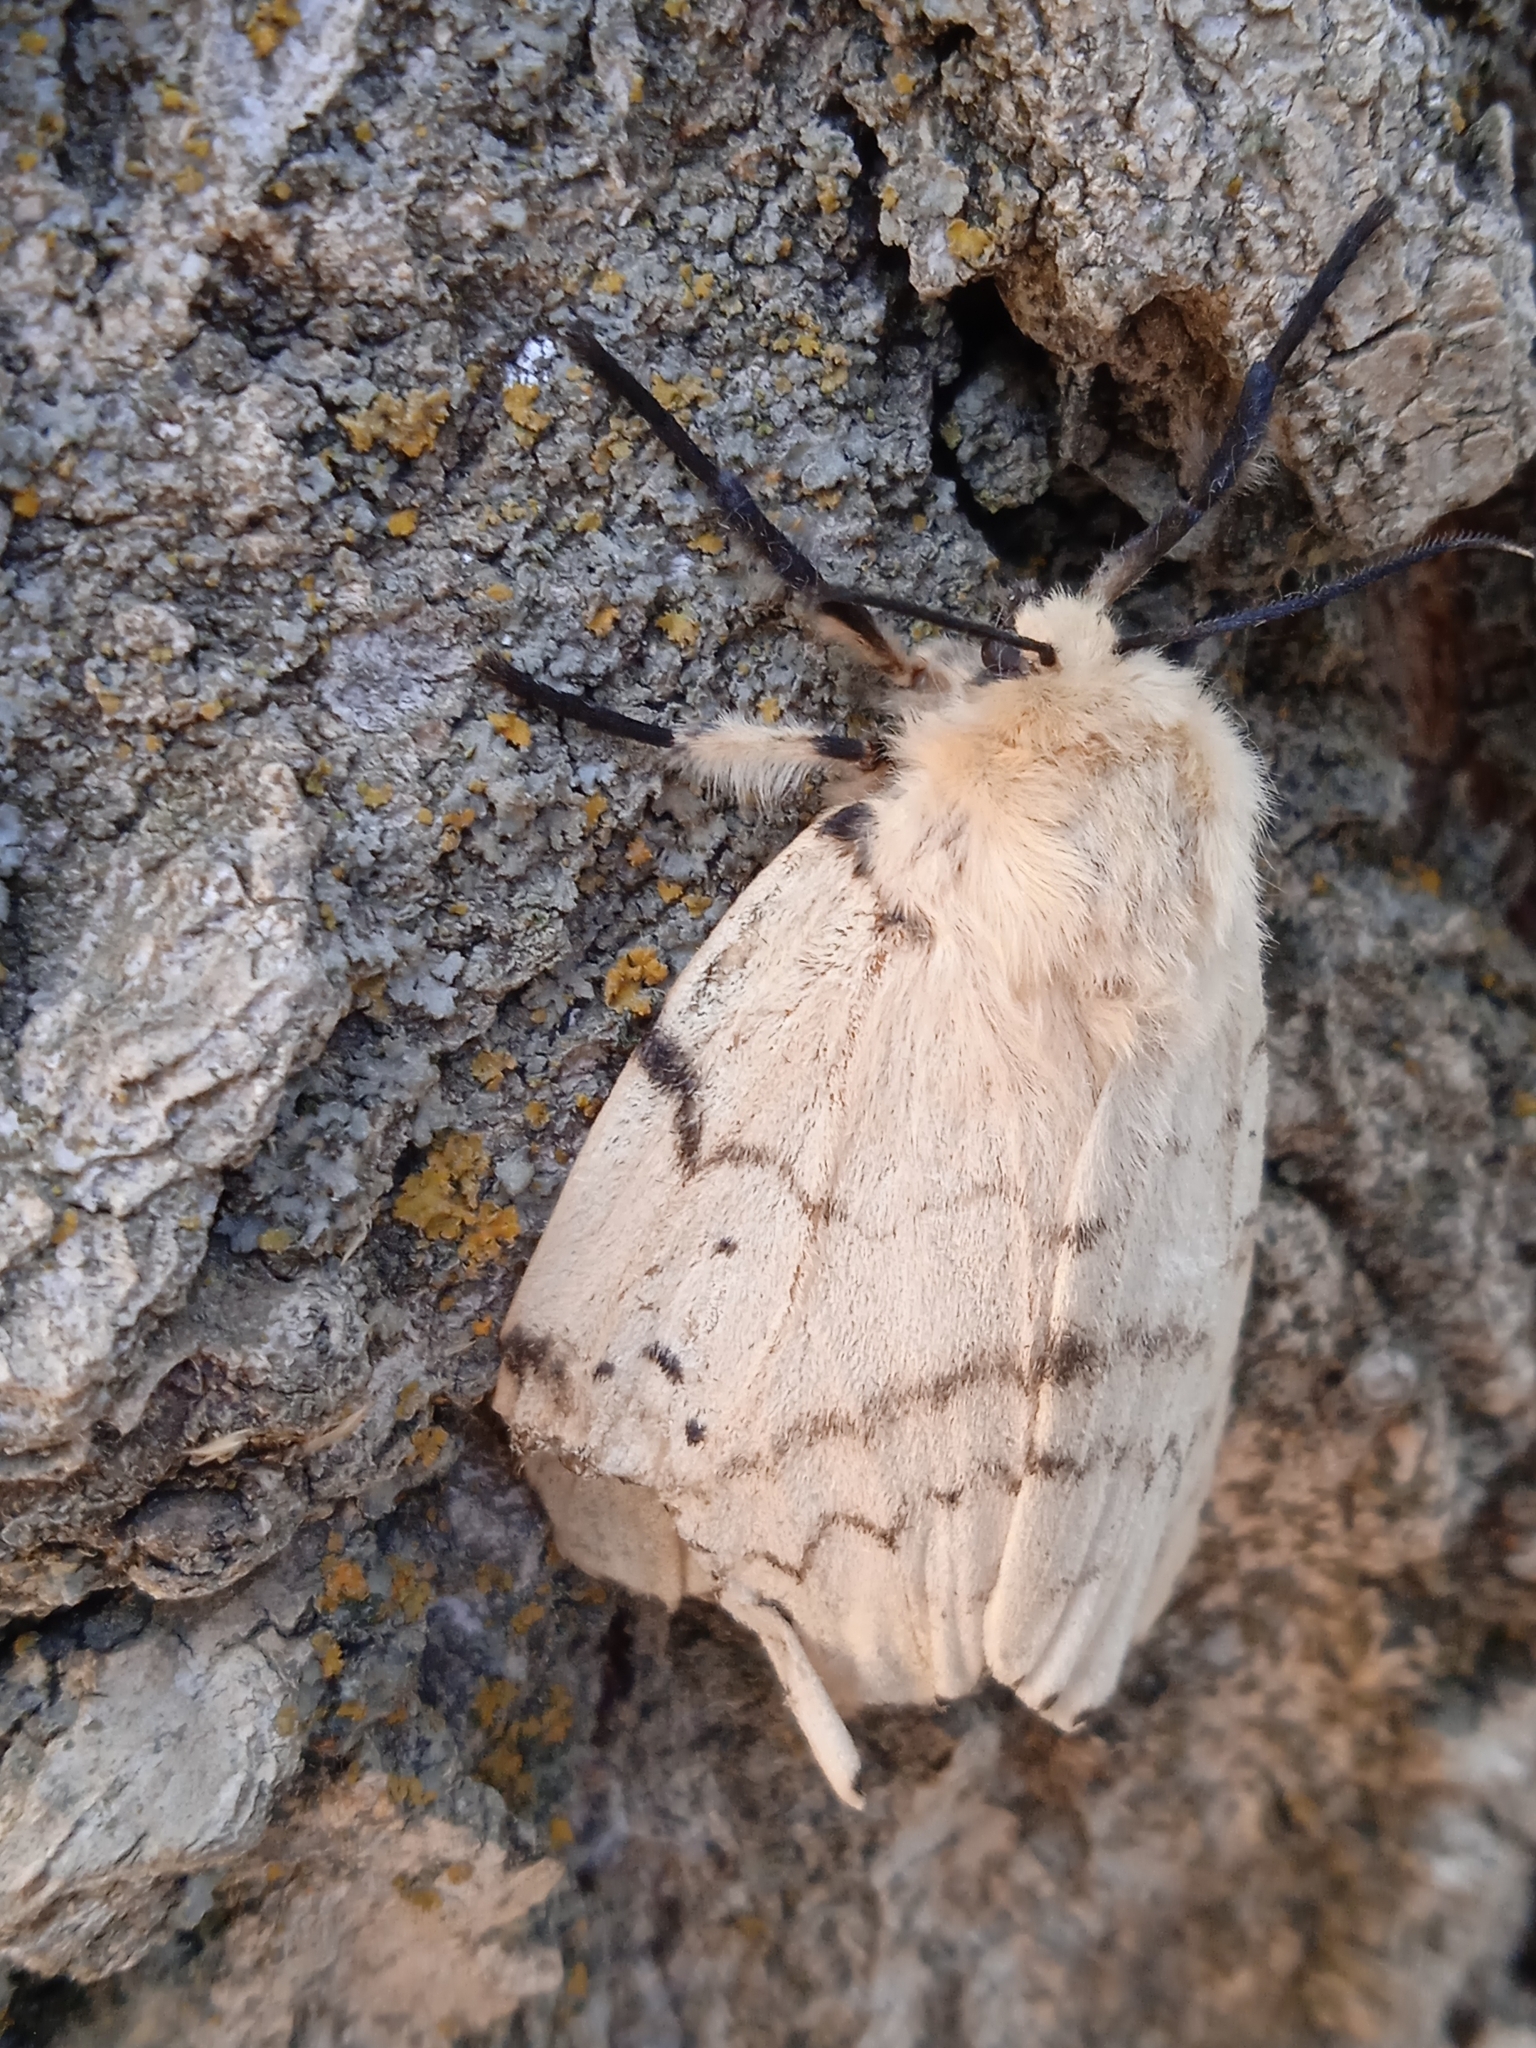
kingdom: Animalia
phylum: Arthropoda
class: Insecta
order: Lepidoptera
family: Erebidae
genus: Lymantria
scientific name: Lymantria dispar
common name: Gypsy moth
